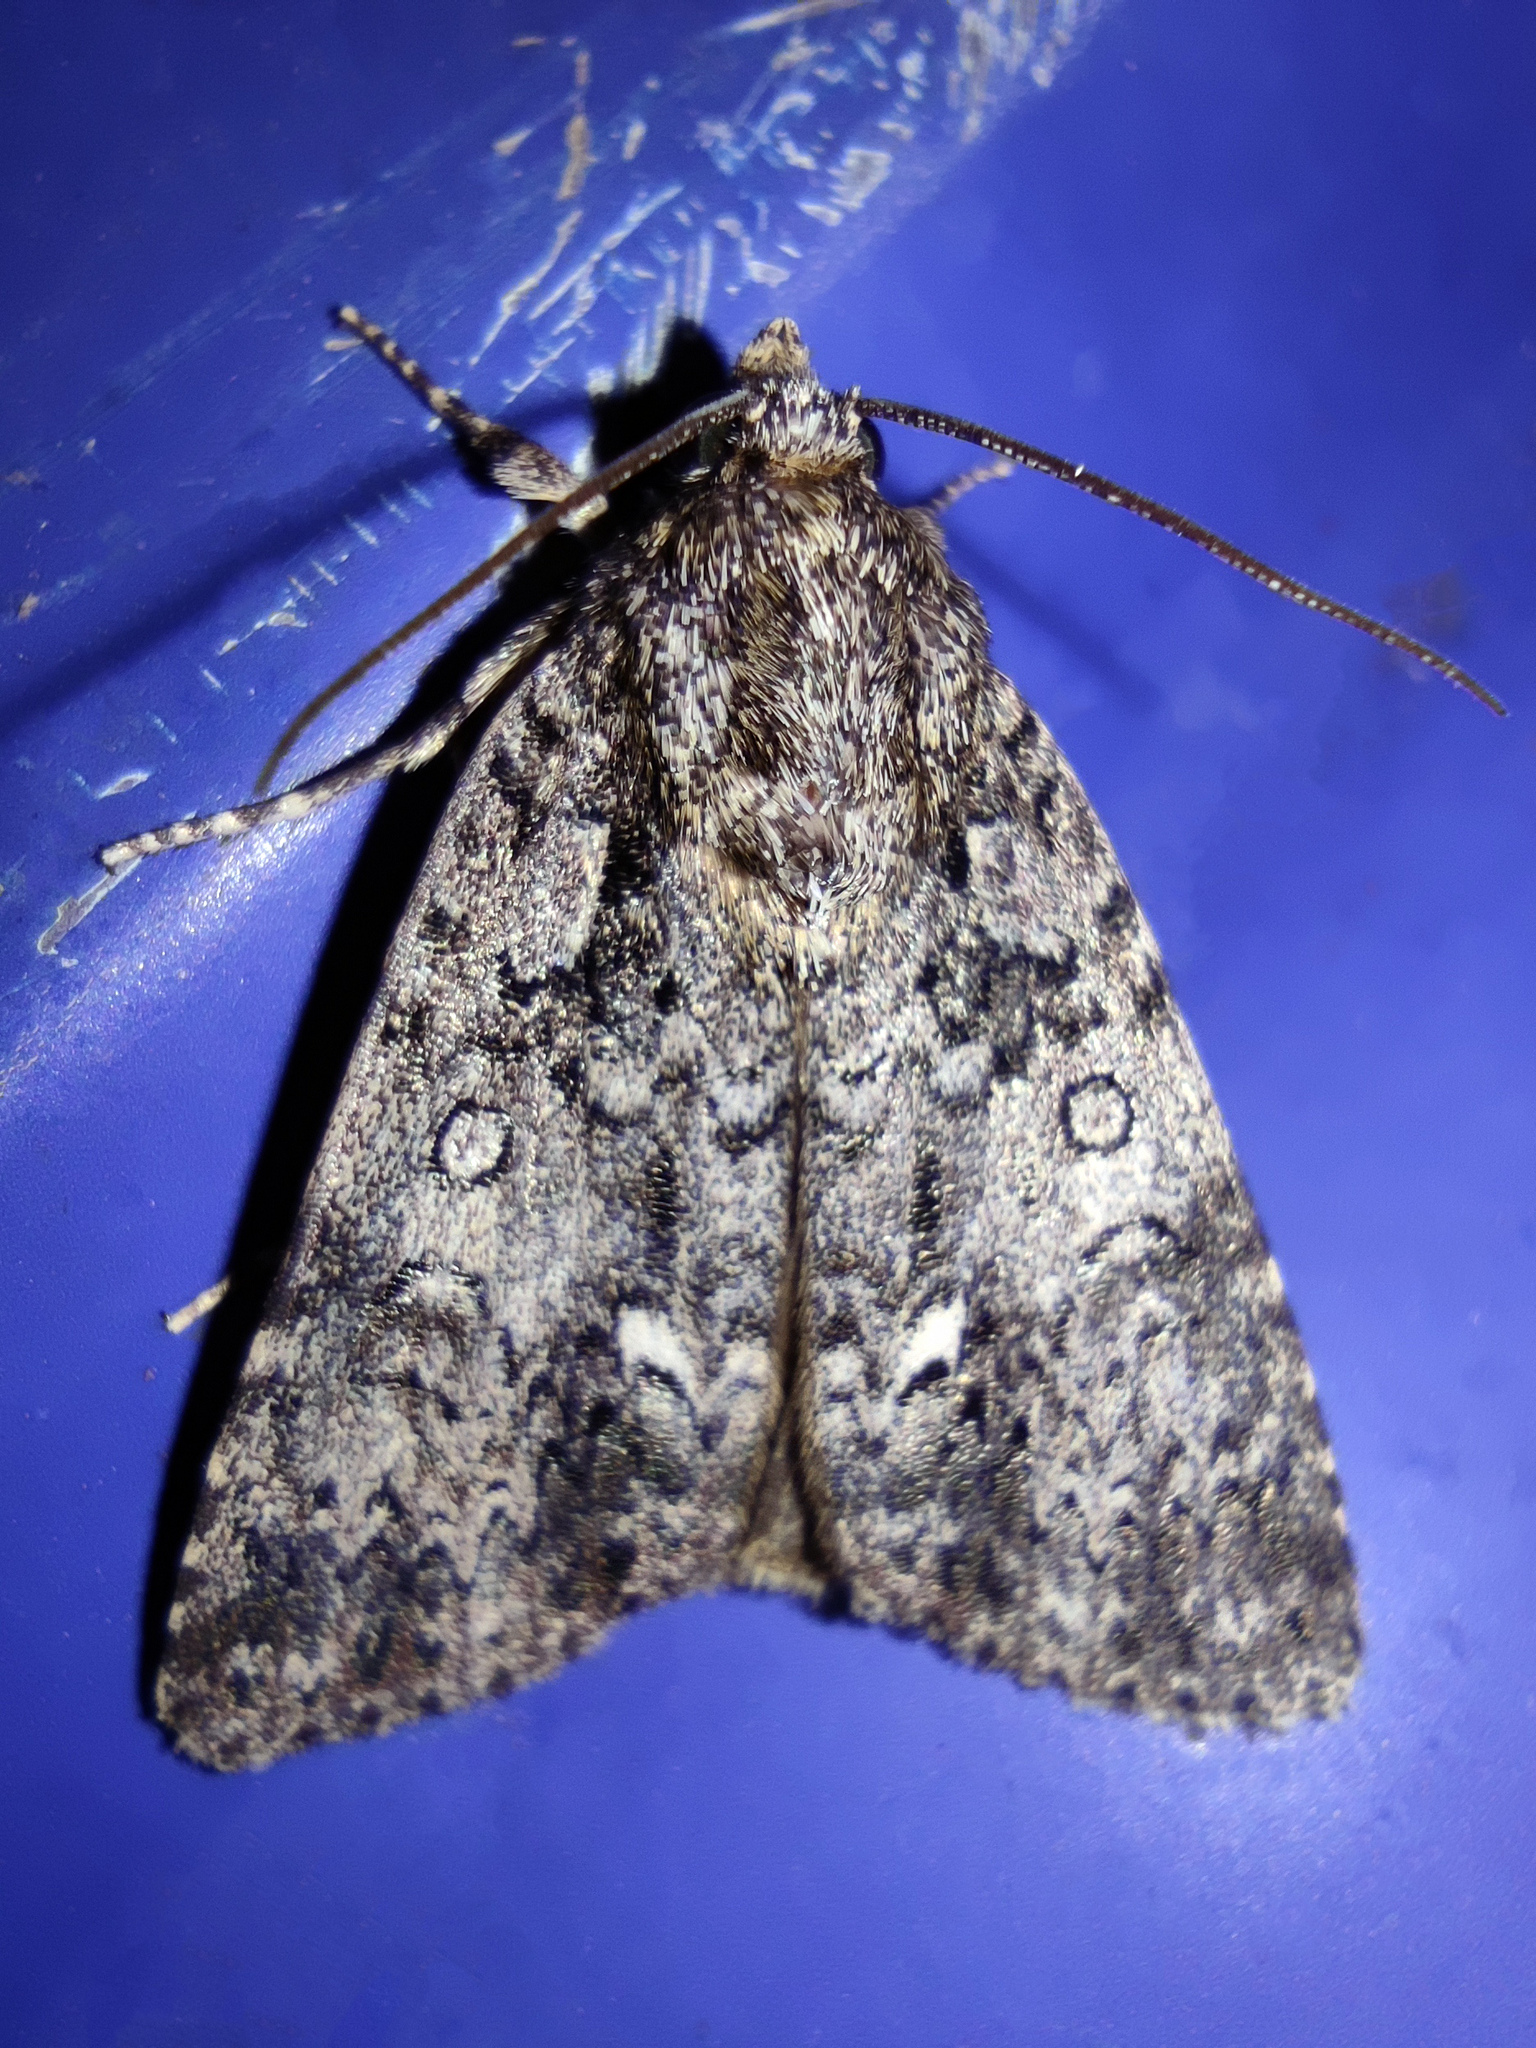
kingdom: Animalia
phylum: Arthropoda
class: Insecta
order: Lepidoptera
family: Noctuidae
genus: Acronicta
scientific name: Acronicta rumicis
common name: Knot grass
